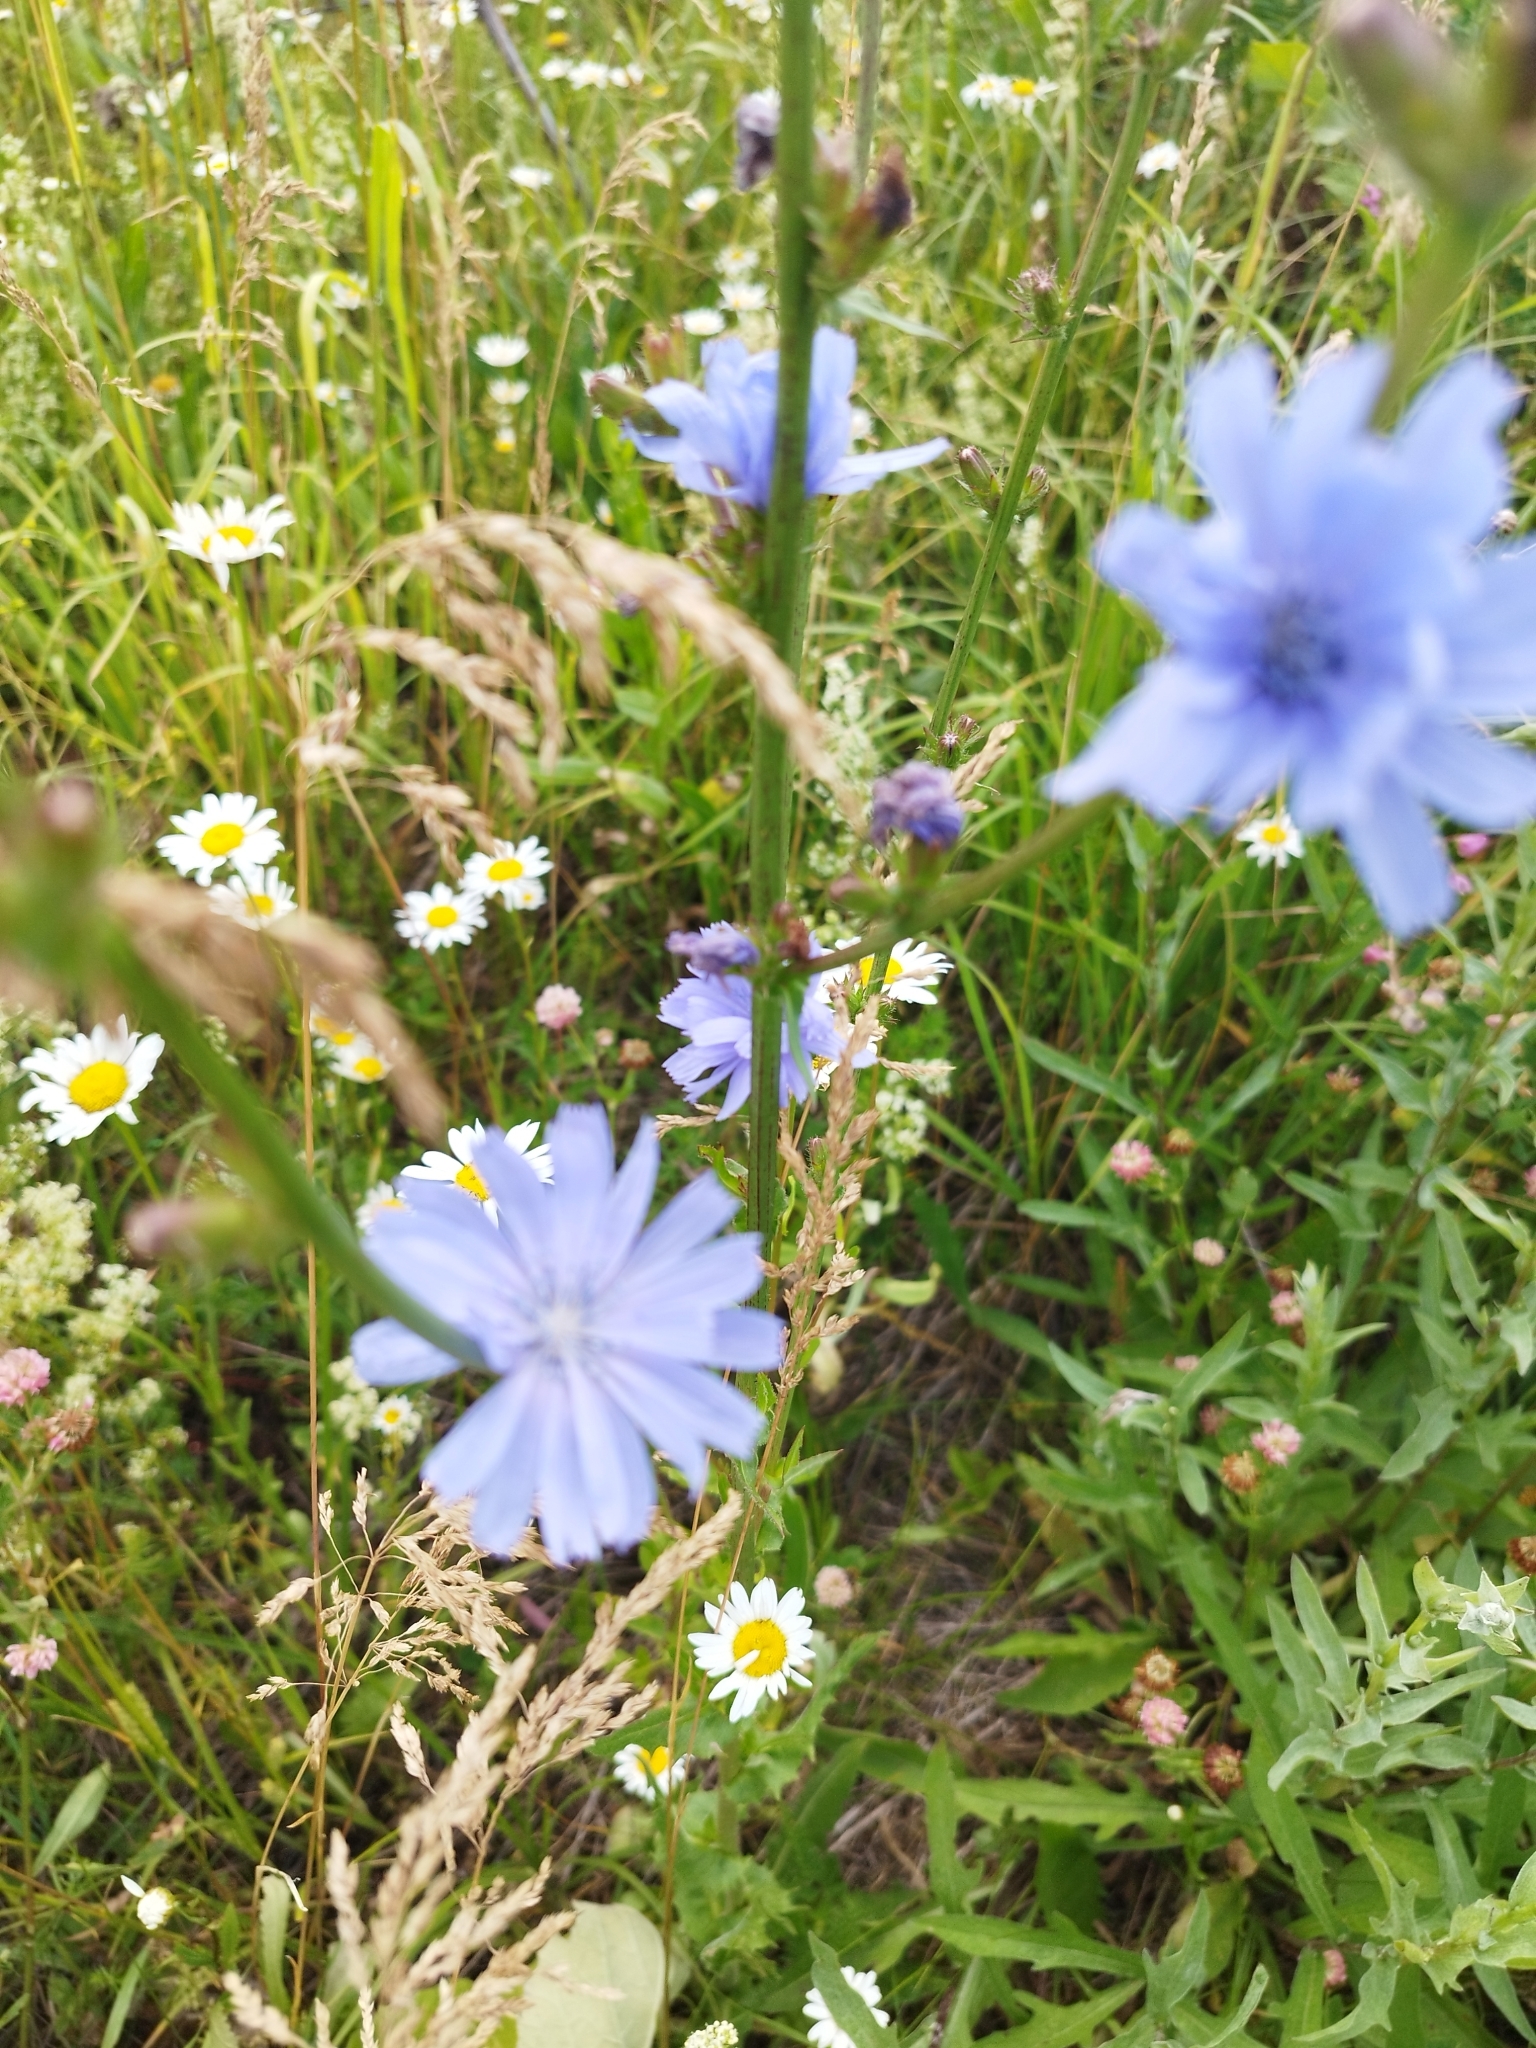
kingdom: Plantae
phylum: Tracheophyta
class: Magnoliopsida
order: Asterales
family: Asteraceae
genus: Cichorium
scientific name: Cichorium intybus
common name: Chicory
